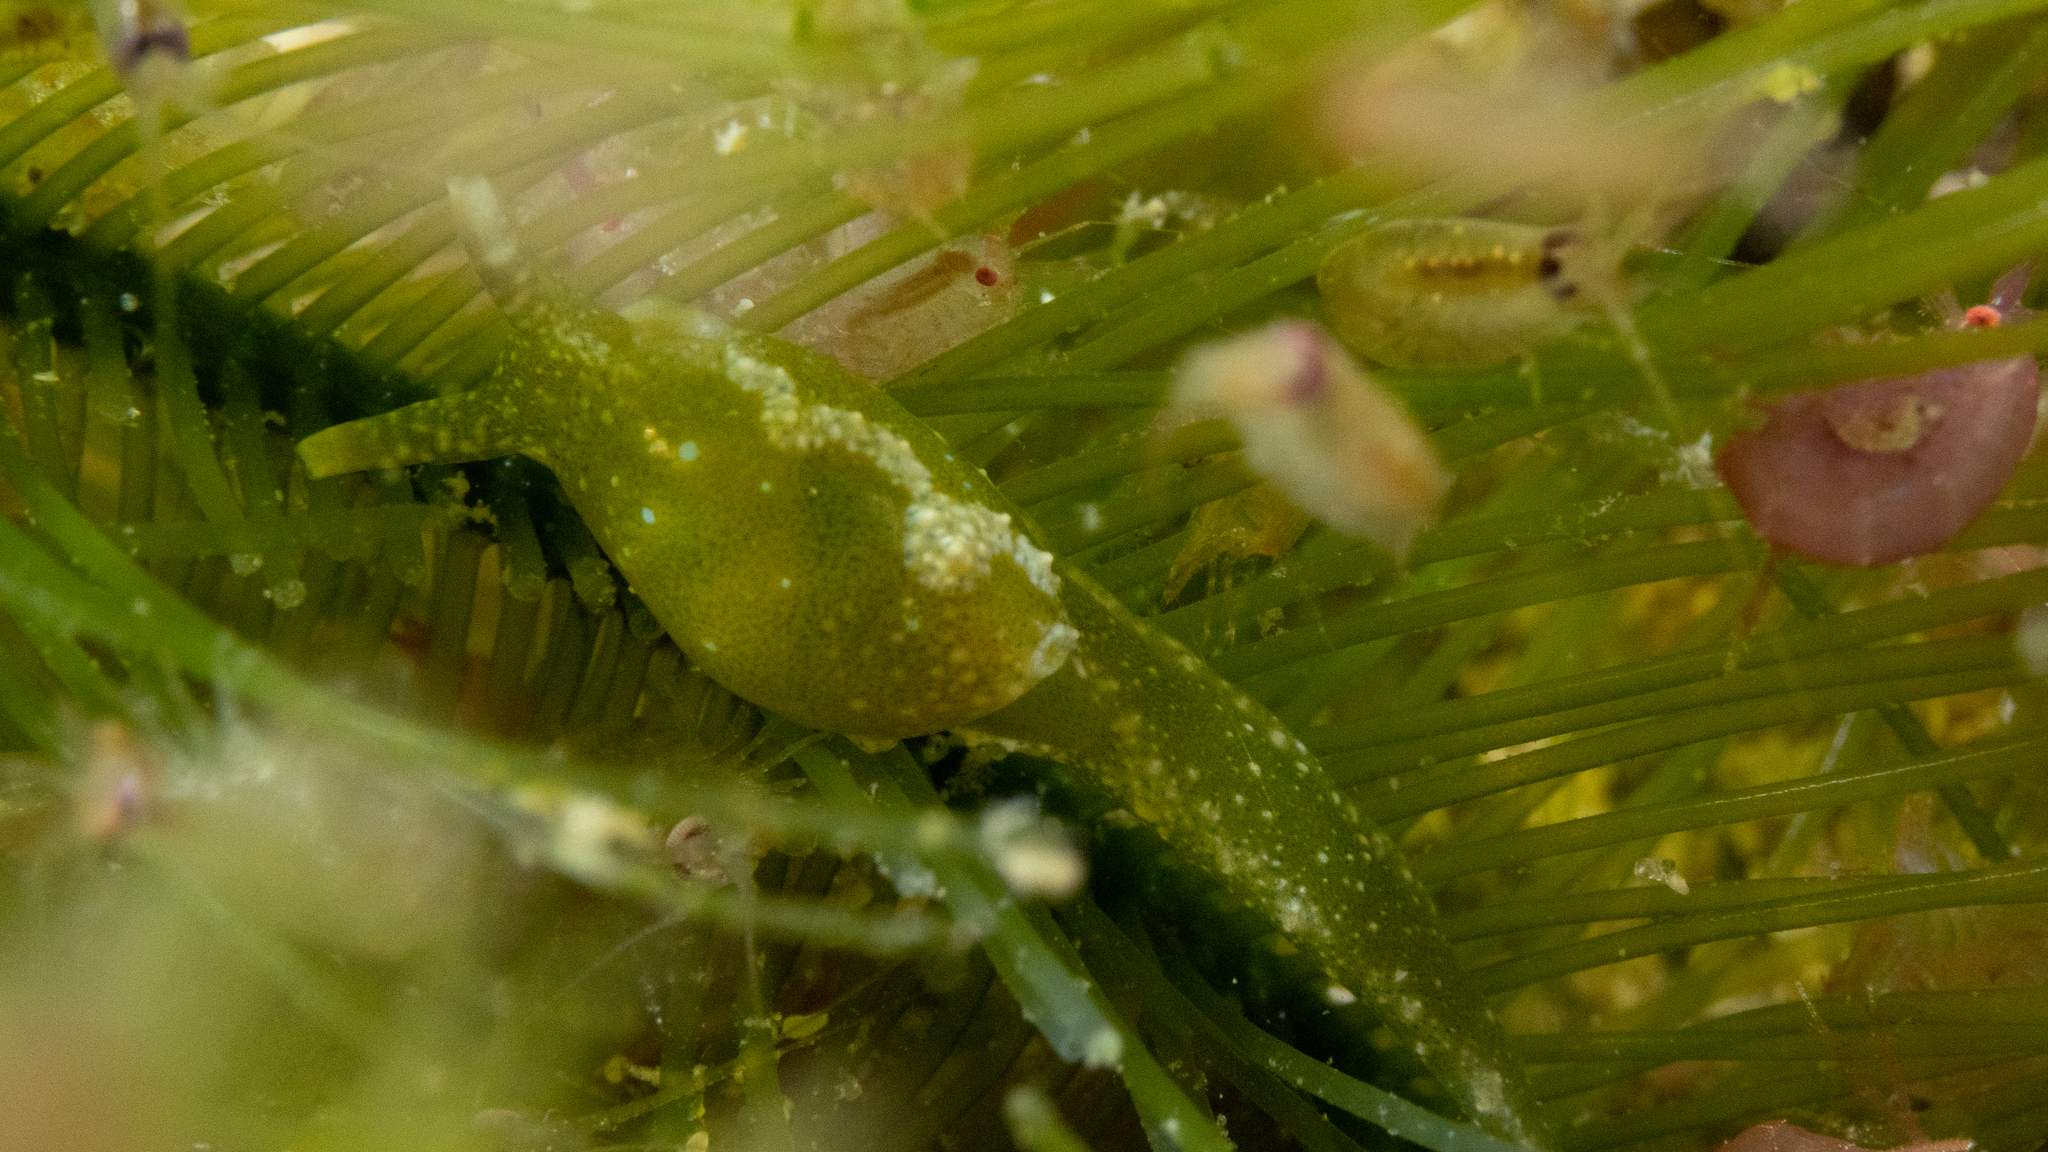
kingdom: Animalia
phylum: Mollusca
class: Gastropoda
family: Oxynoidae
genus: Oxynoe
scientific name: Oxynoe viridis
